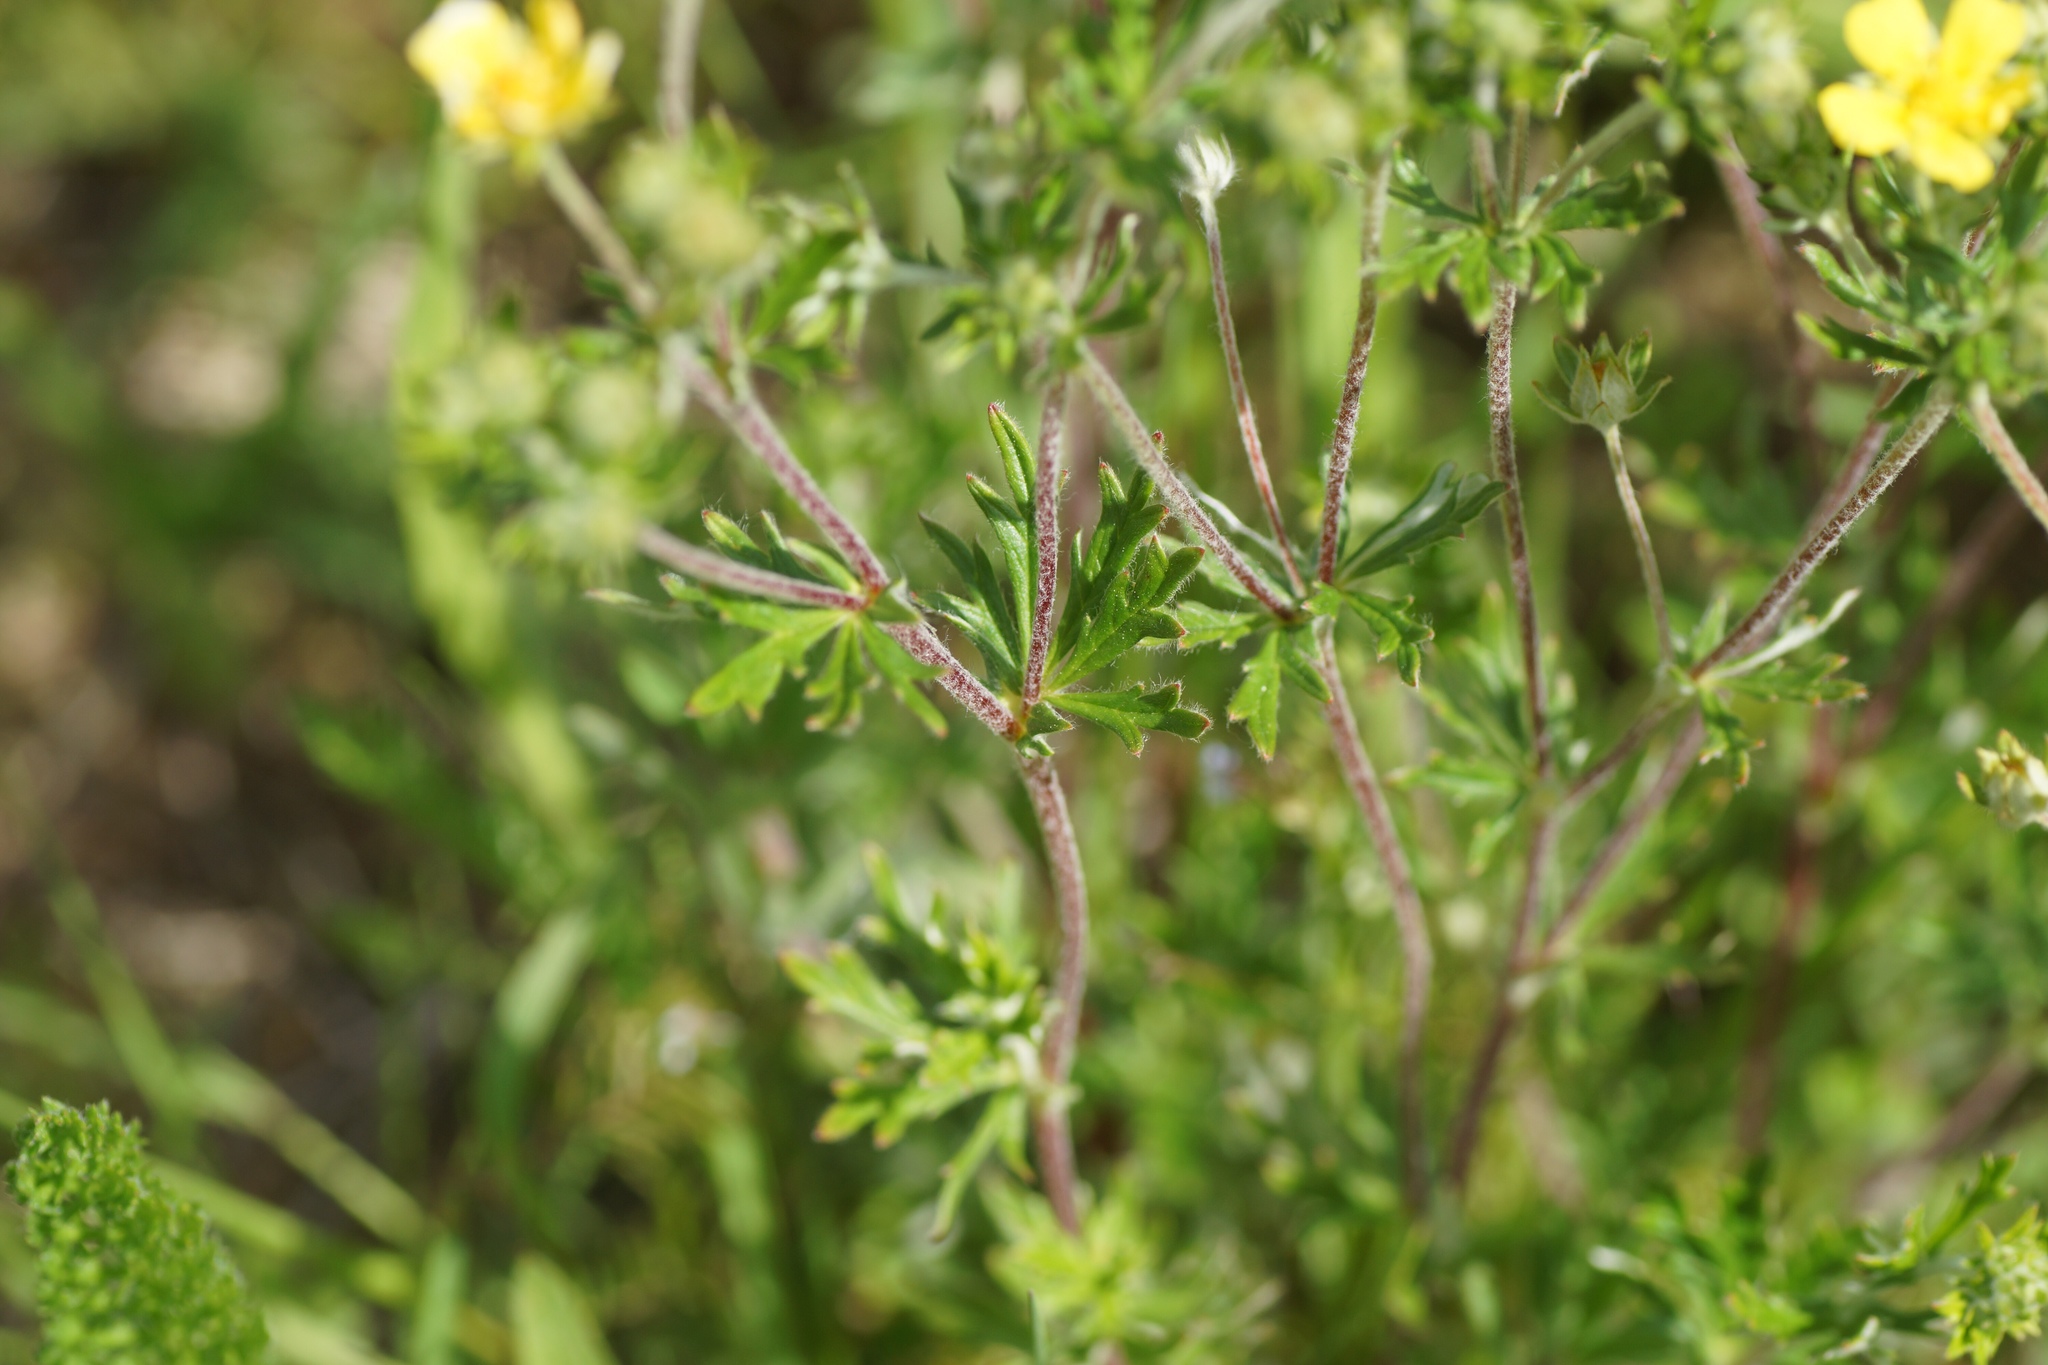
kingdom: Plantae
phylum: Tracheophyta
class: Magnoliopsida
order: Rosales
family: Rosaceae
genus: Potentilla
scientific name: Potentilla argentea
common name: Hoary cinquefoil
